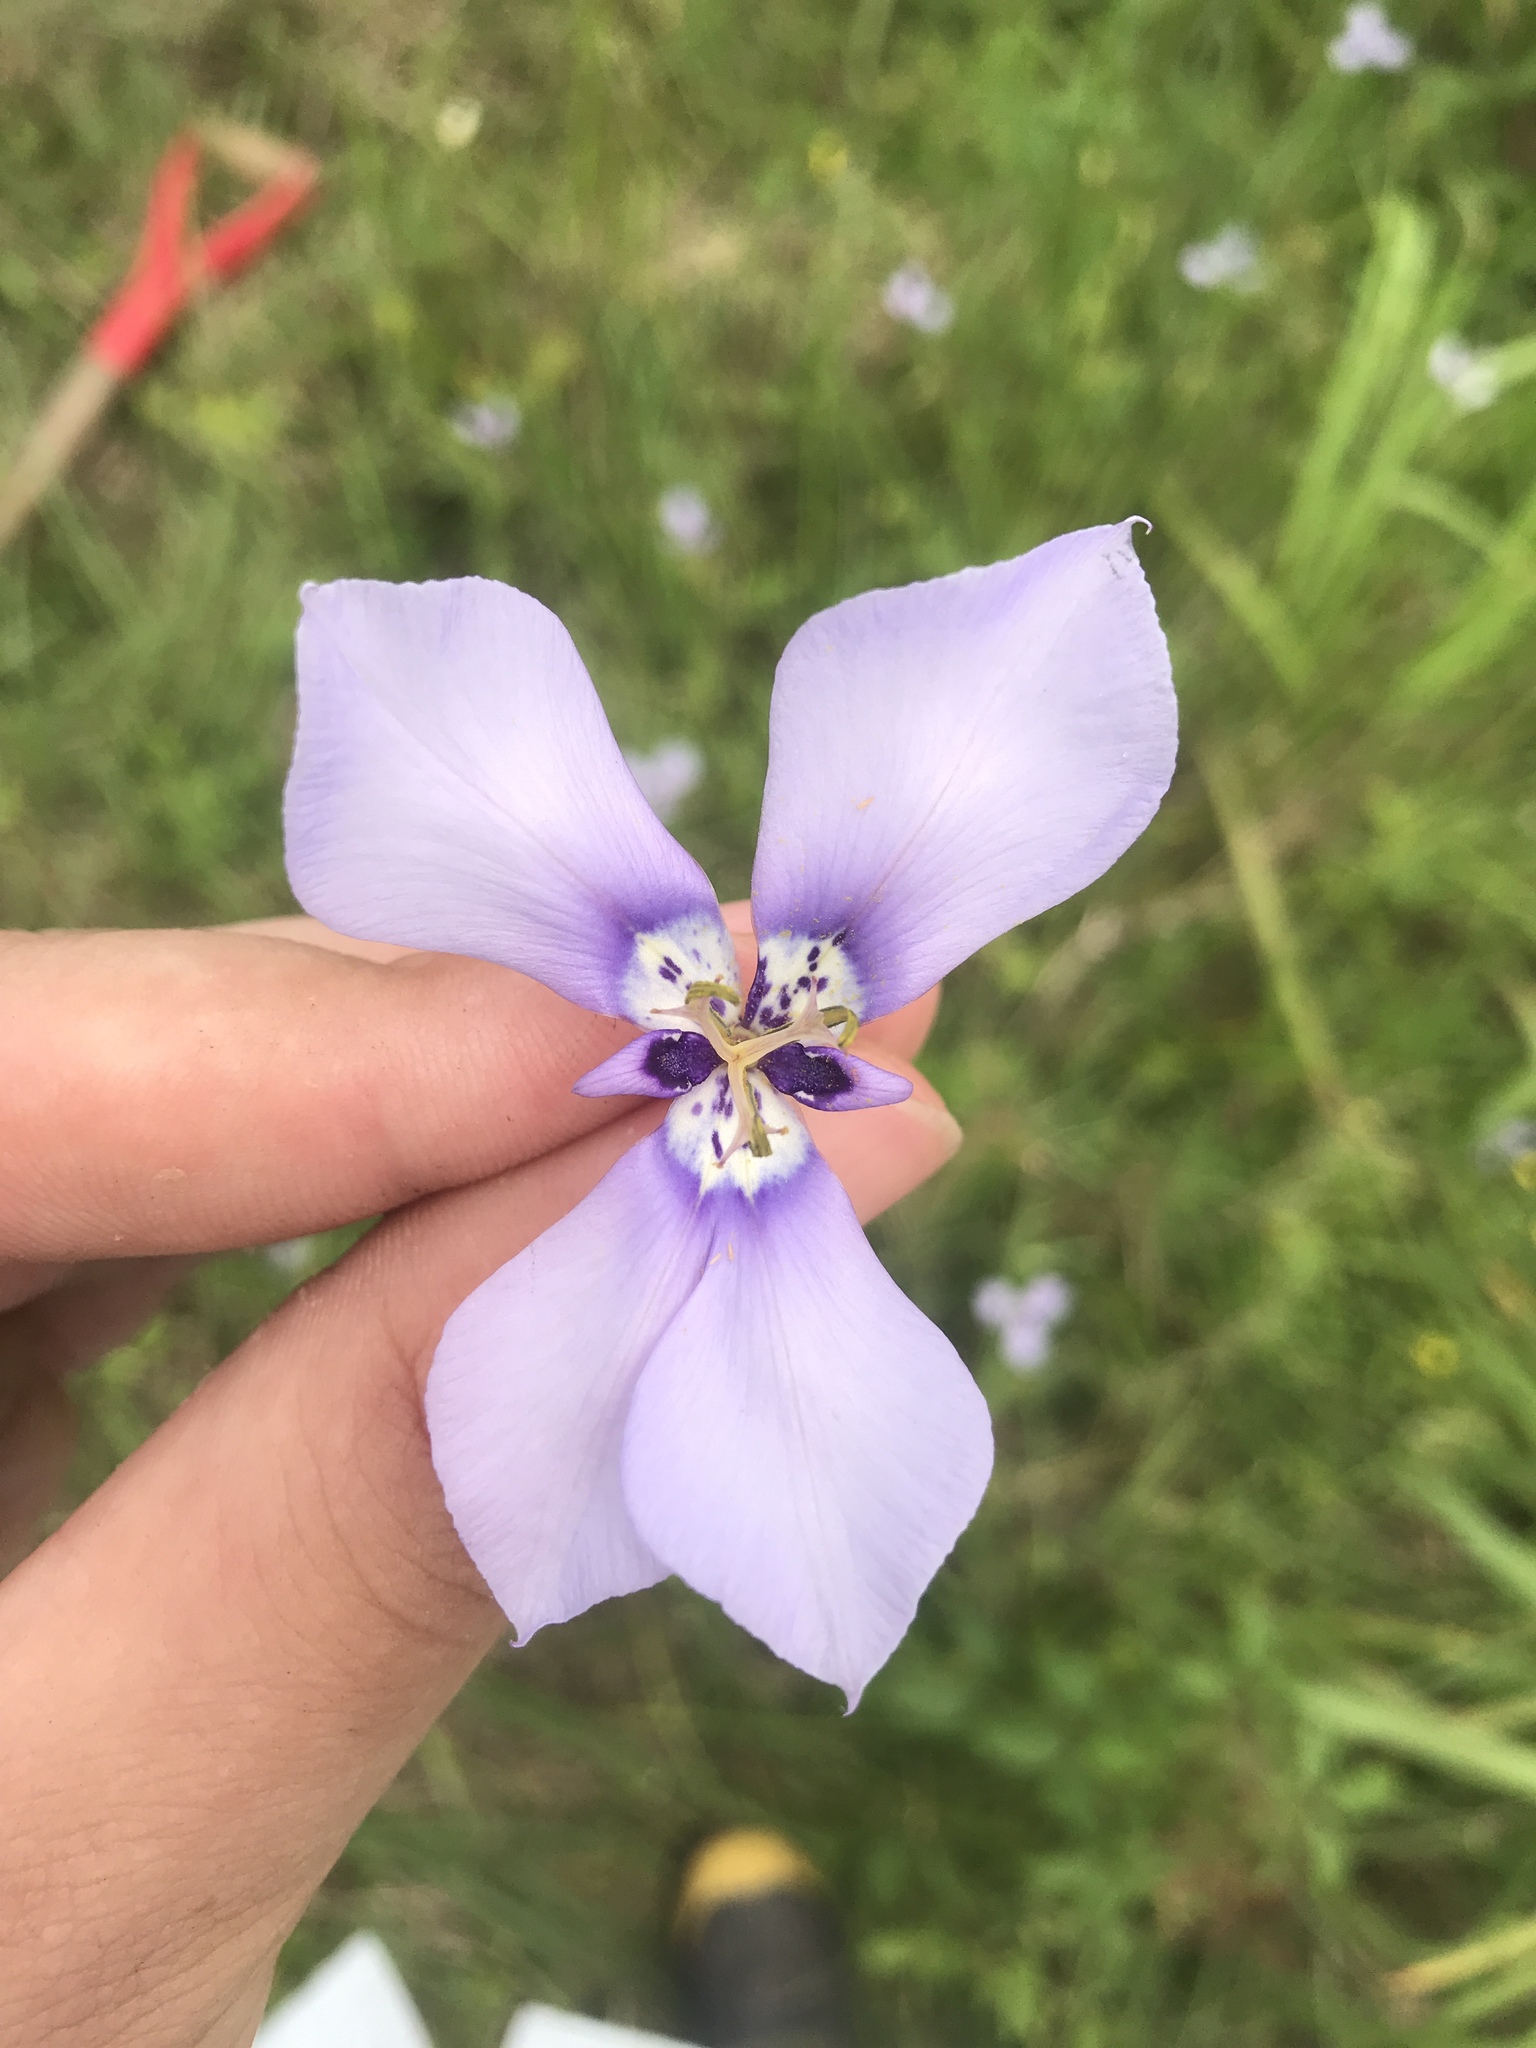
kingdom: Plantae
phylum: Tracheophyta
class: Liliopsida
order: Asparagales
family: Iridaceae
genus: Herbertia
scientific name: Herbertia lahue
